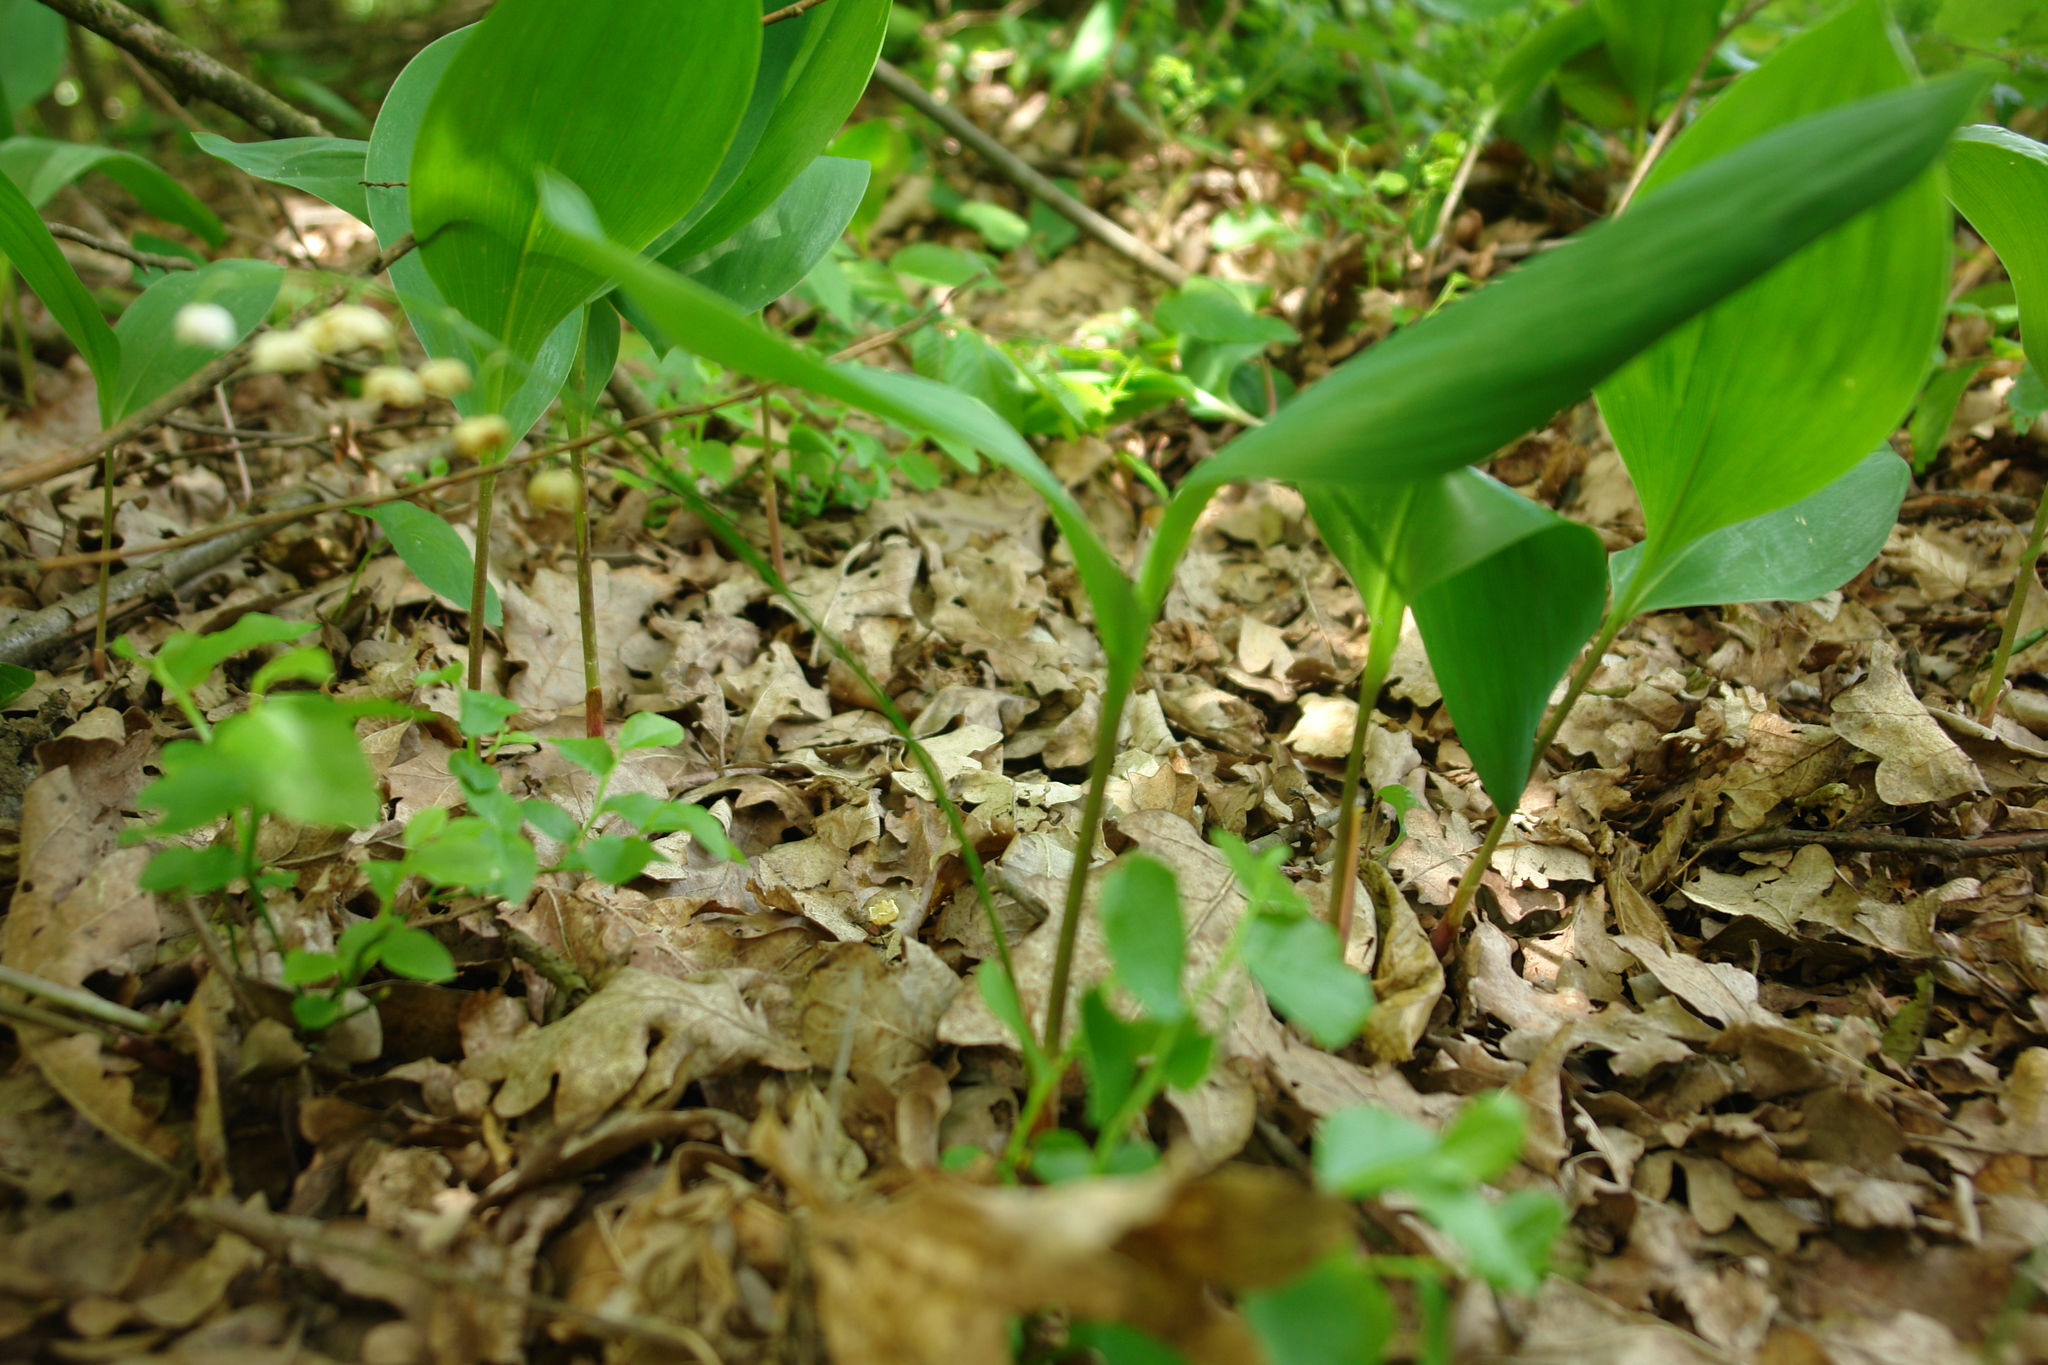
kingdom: Plantae
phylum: Tracheophyta
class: Liliopsida
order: Asparagales
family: Asparagaceae
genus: Convallaria
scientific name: Convallaria majalis
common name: Lily-of-the-valley
